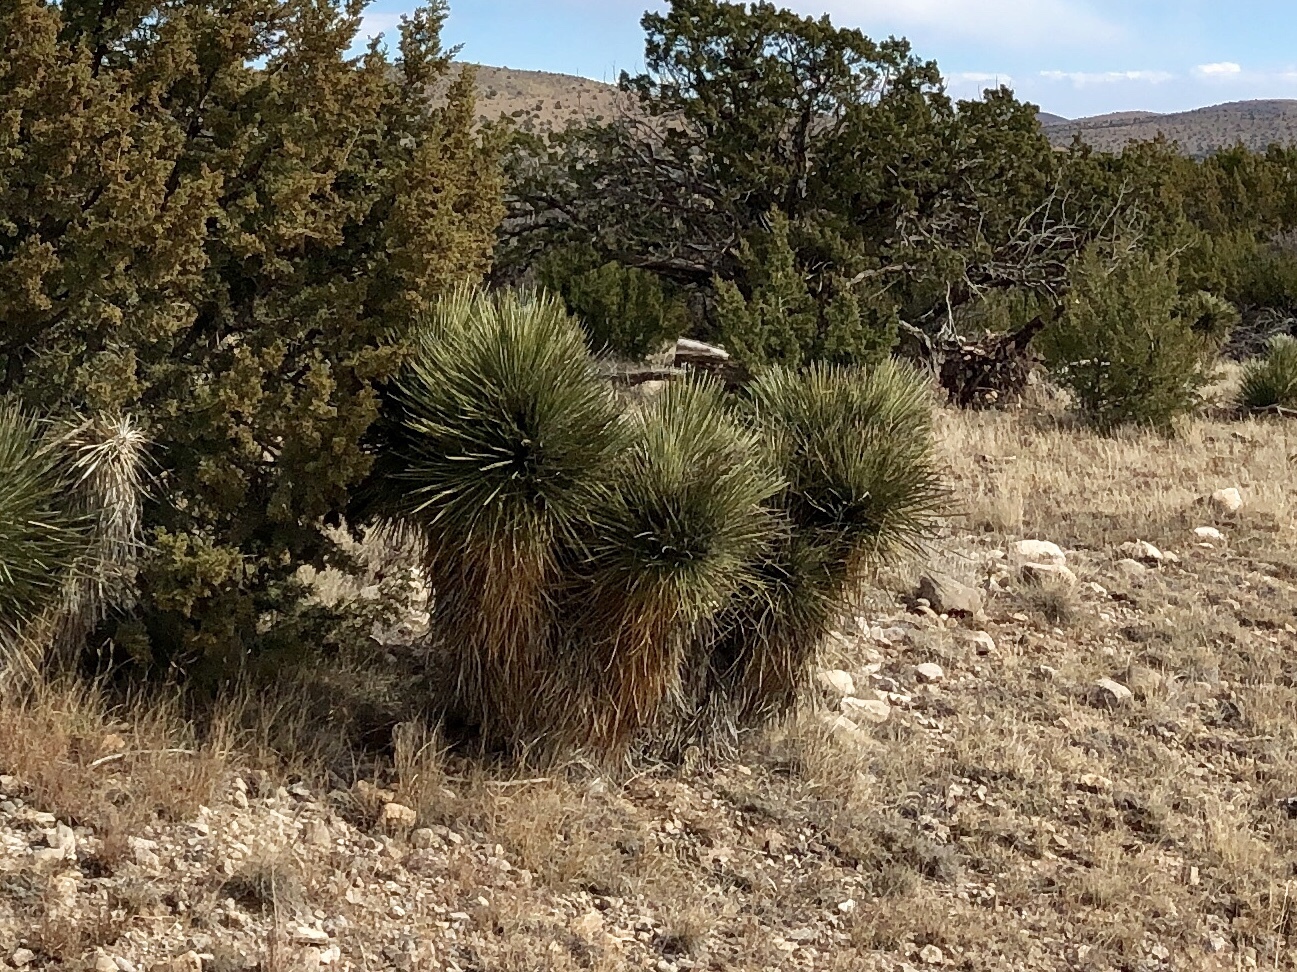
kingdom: Plantae
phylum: Tracheophyta
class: Liliopsida
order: Asparagales
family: Asparagaceae
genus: Yucca
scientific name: Yucca elata
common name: Palmella
